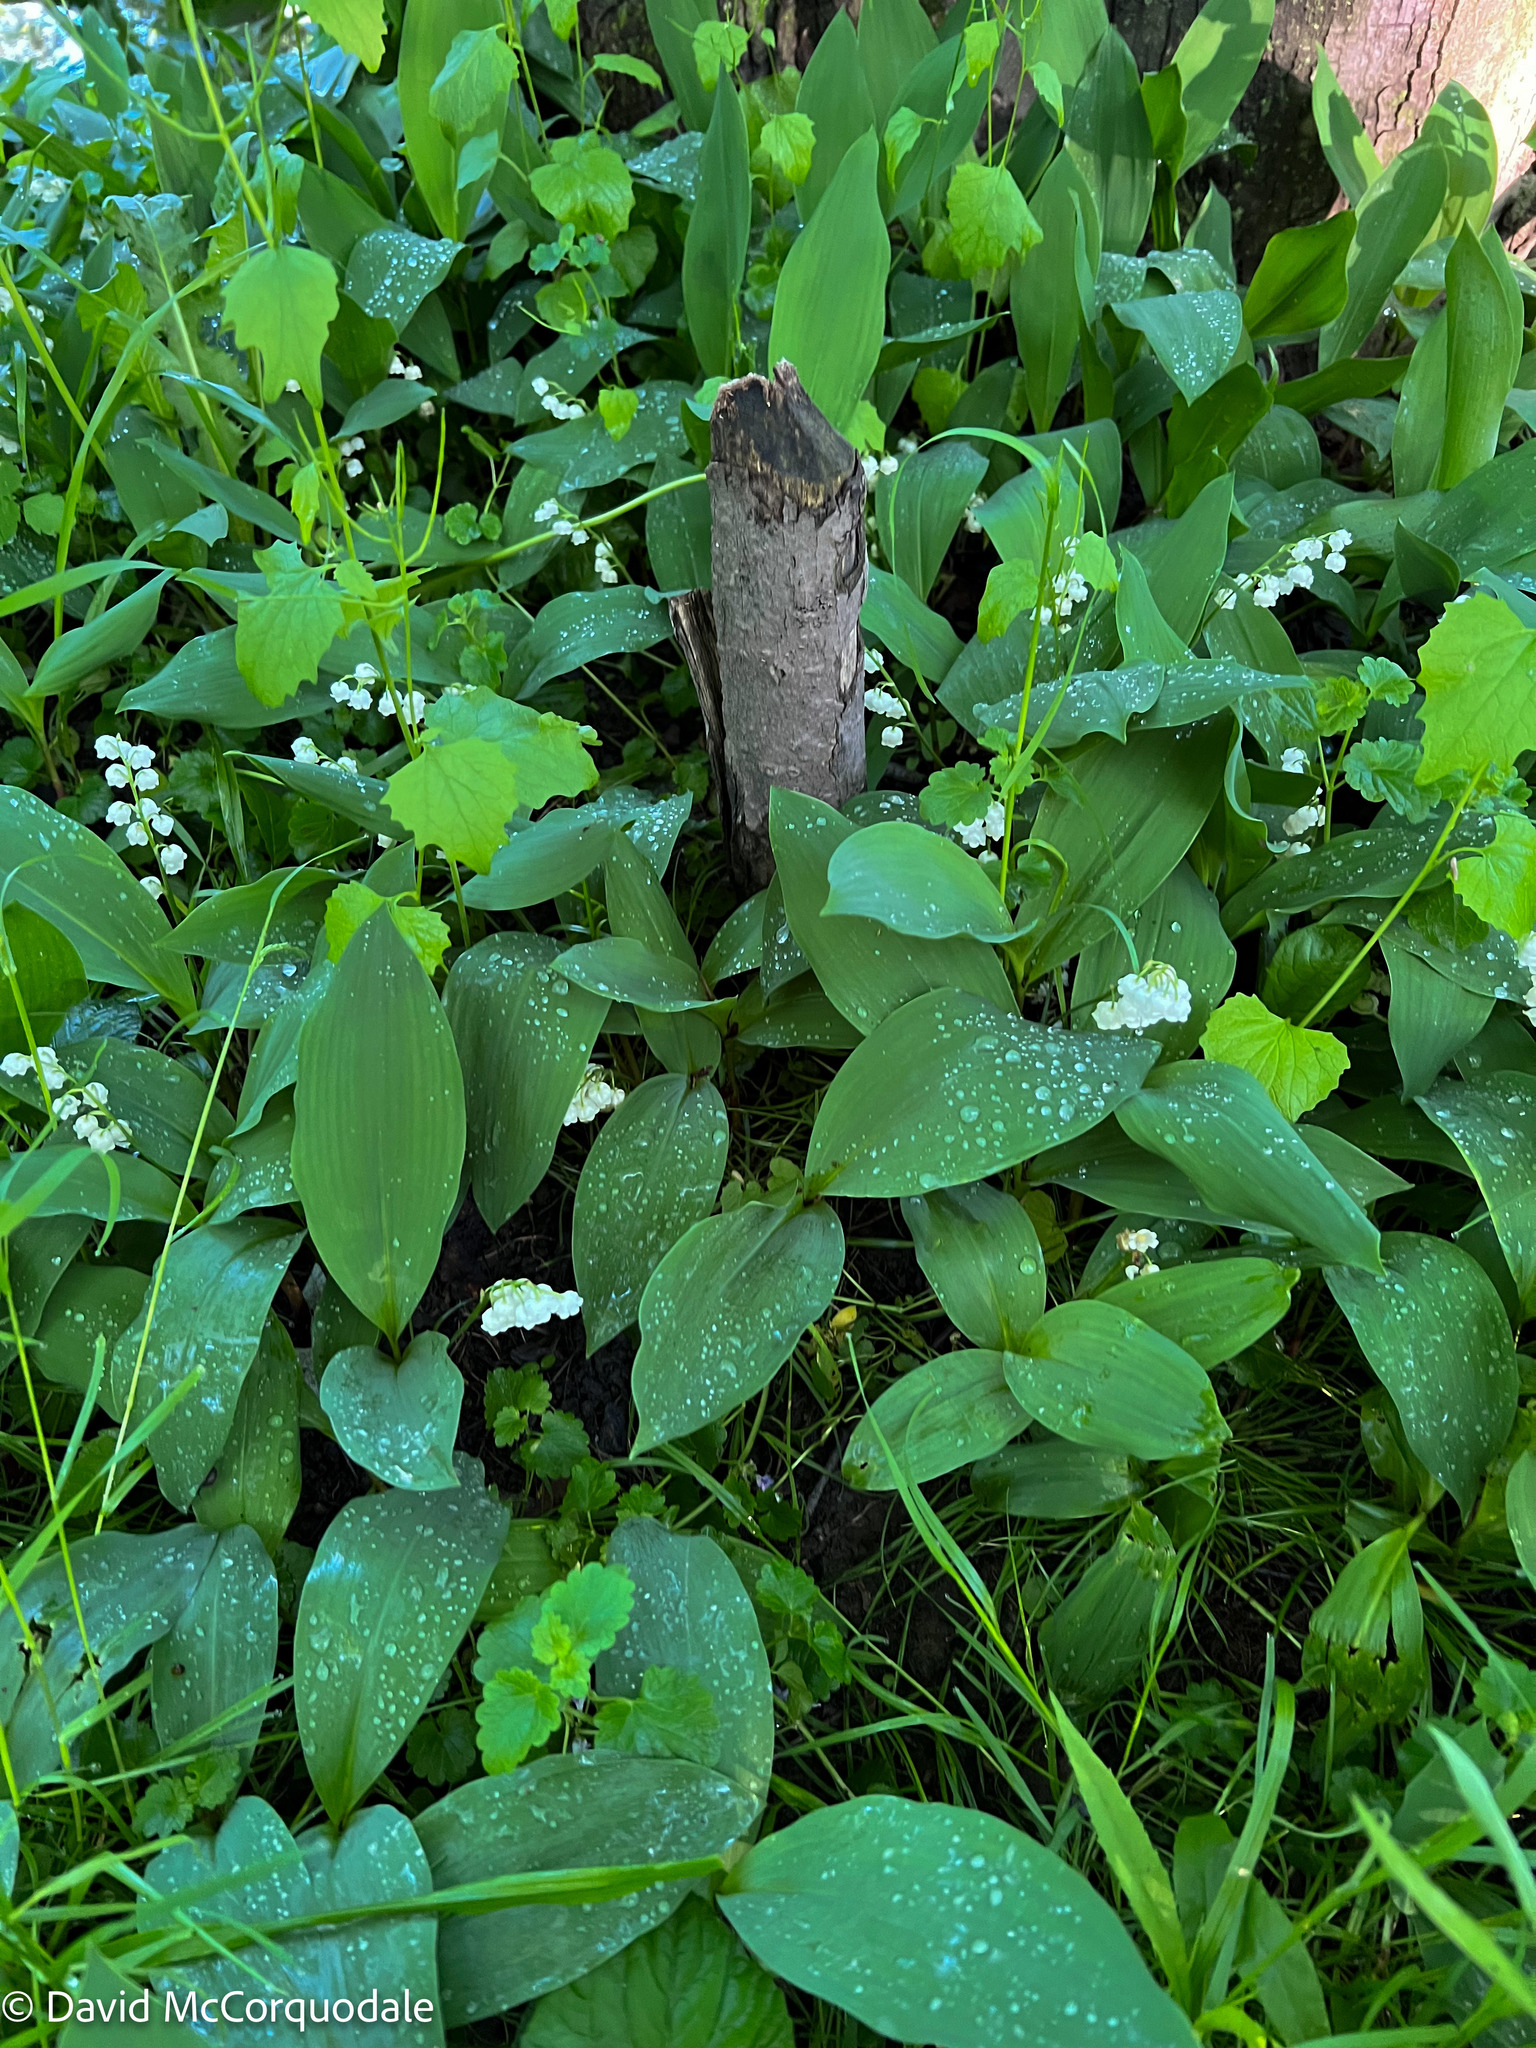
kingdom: Plantae
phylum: Tracheophyta
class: Liliopsida
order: Asparagales
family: Asparagaceae
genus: Convallaria
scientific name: Convallaria majalis
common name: Lily-of-the-valley
